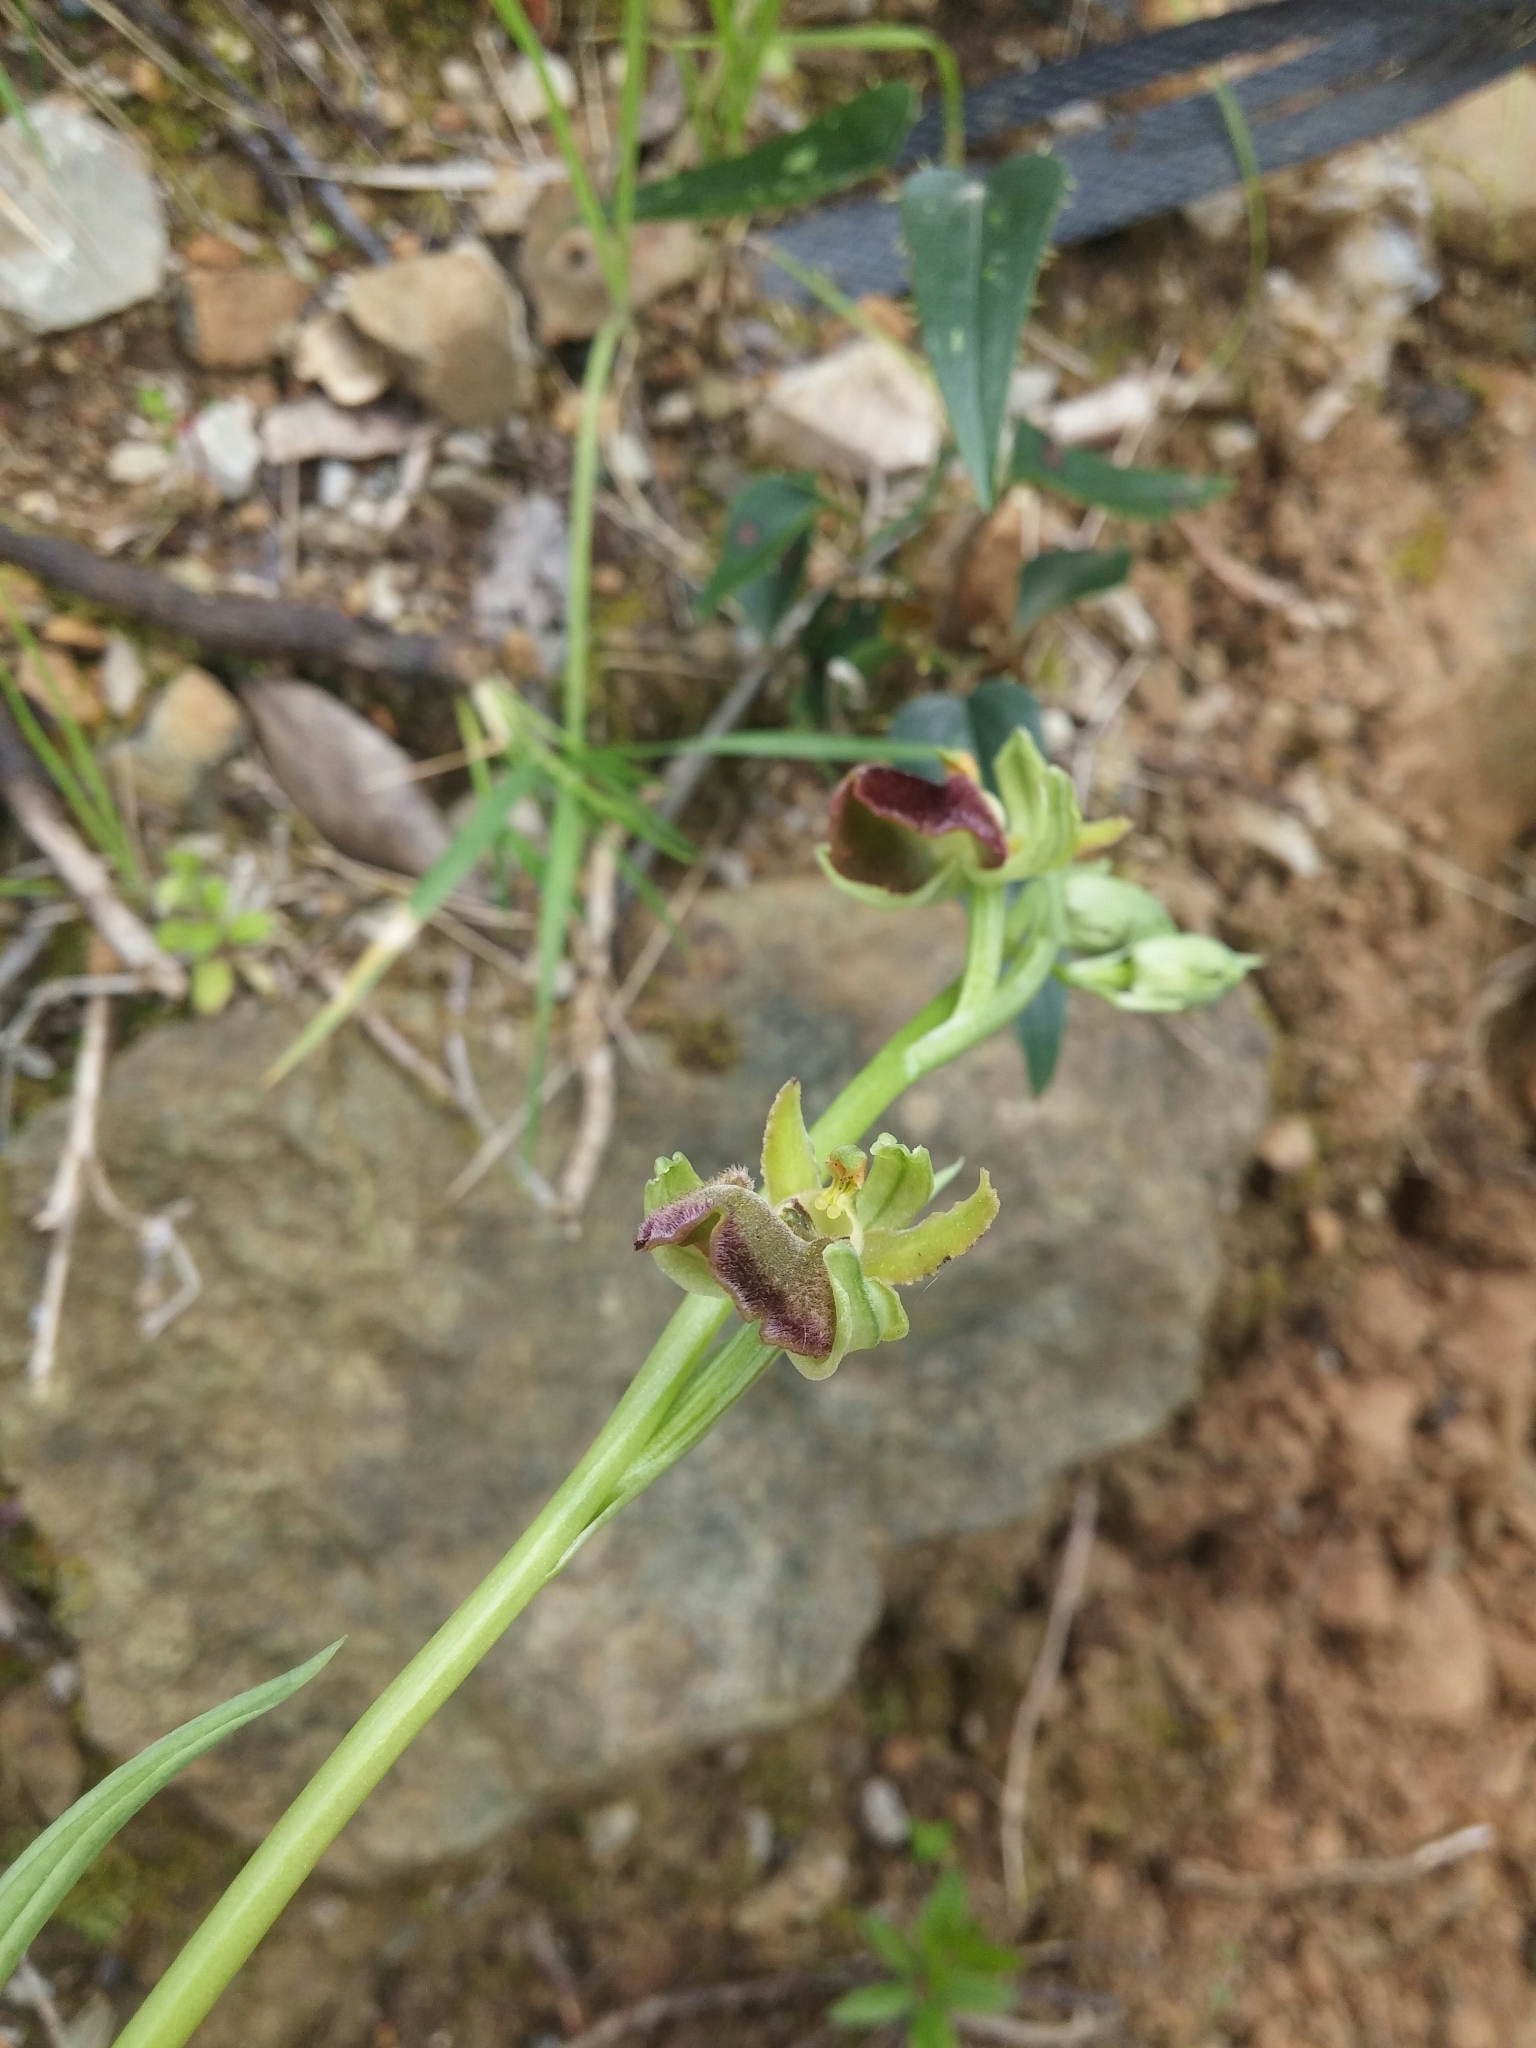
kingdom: Plantae
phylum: Tracheophyta
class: Liliopsida
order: Asparagales
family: Orchidaceae
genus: Ophrys
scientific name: Ophrys sphegodes
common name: Early spider-orchid
